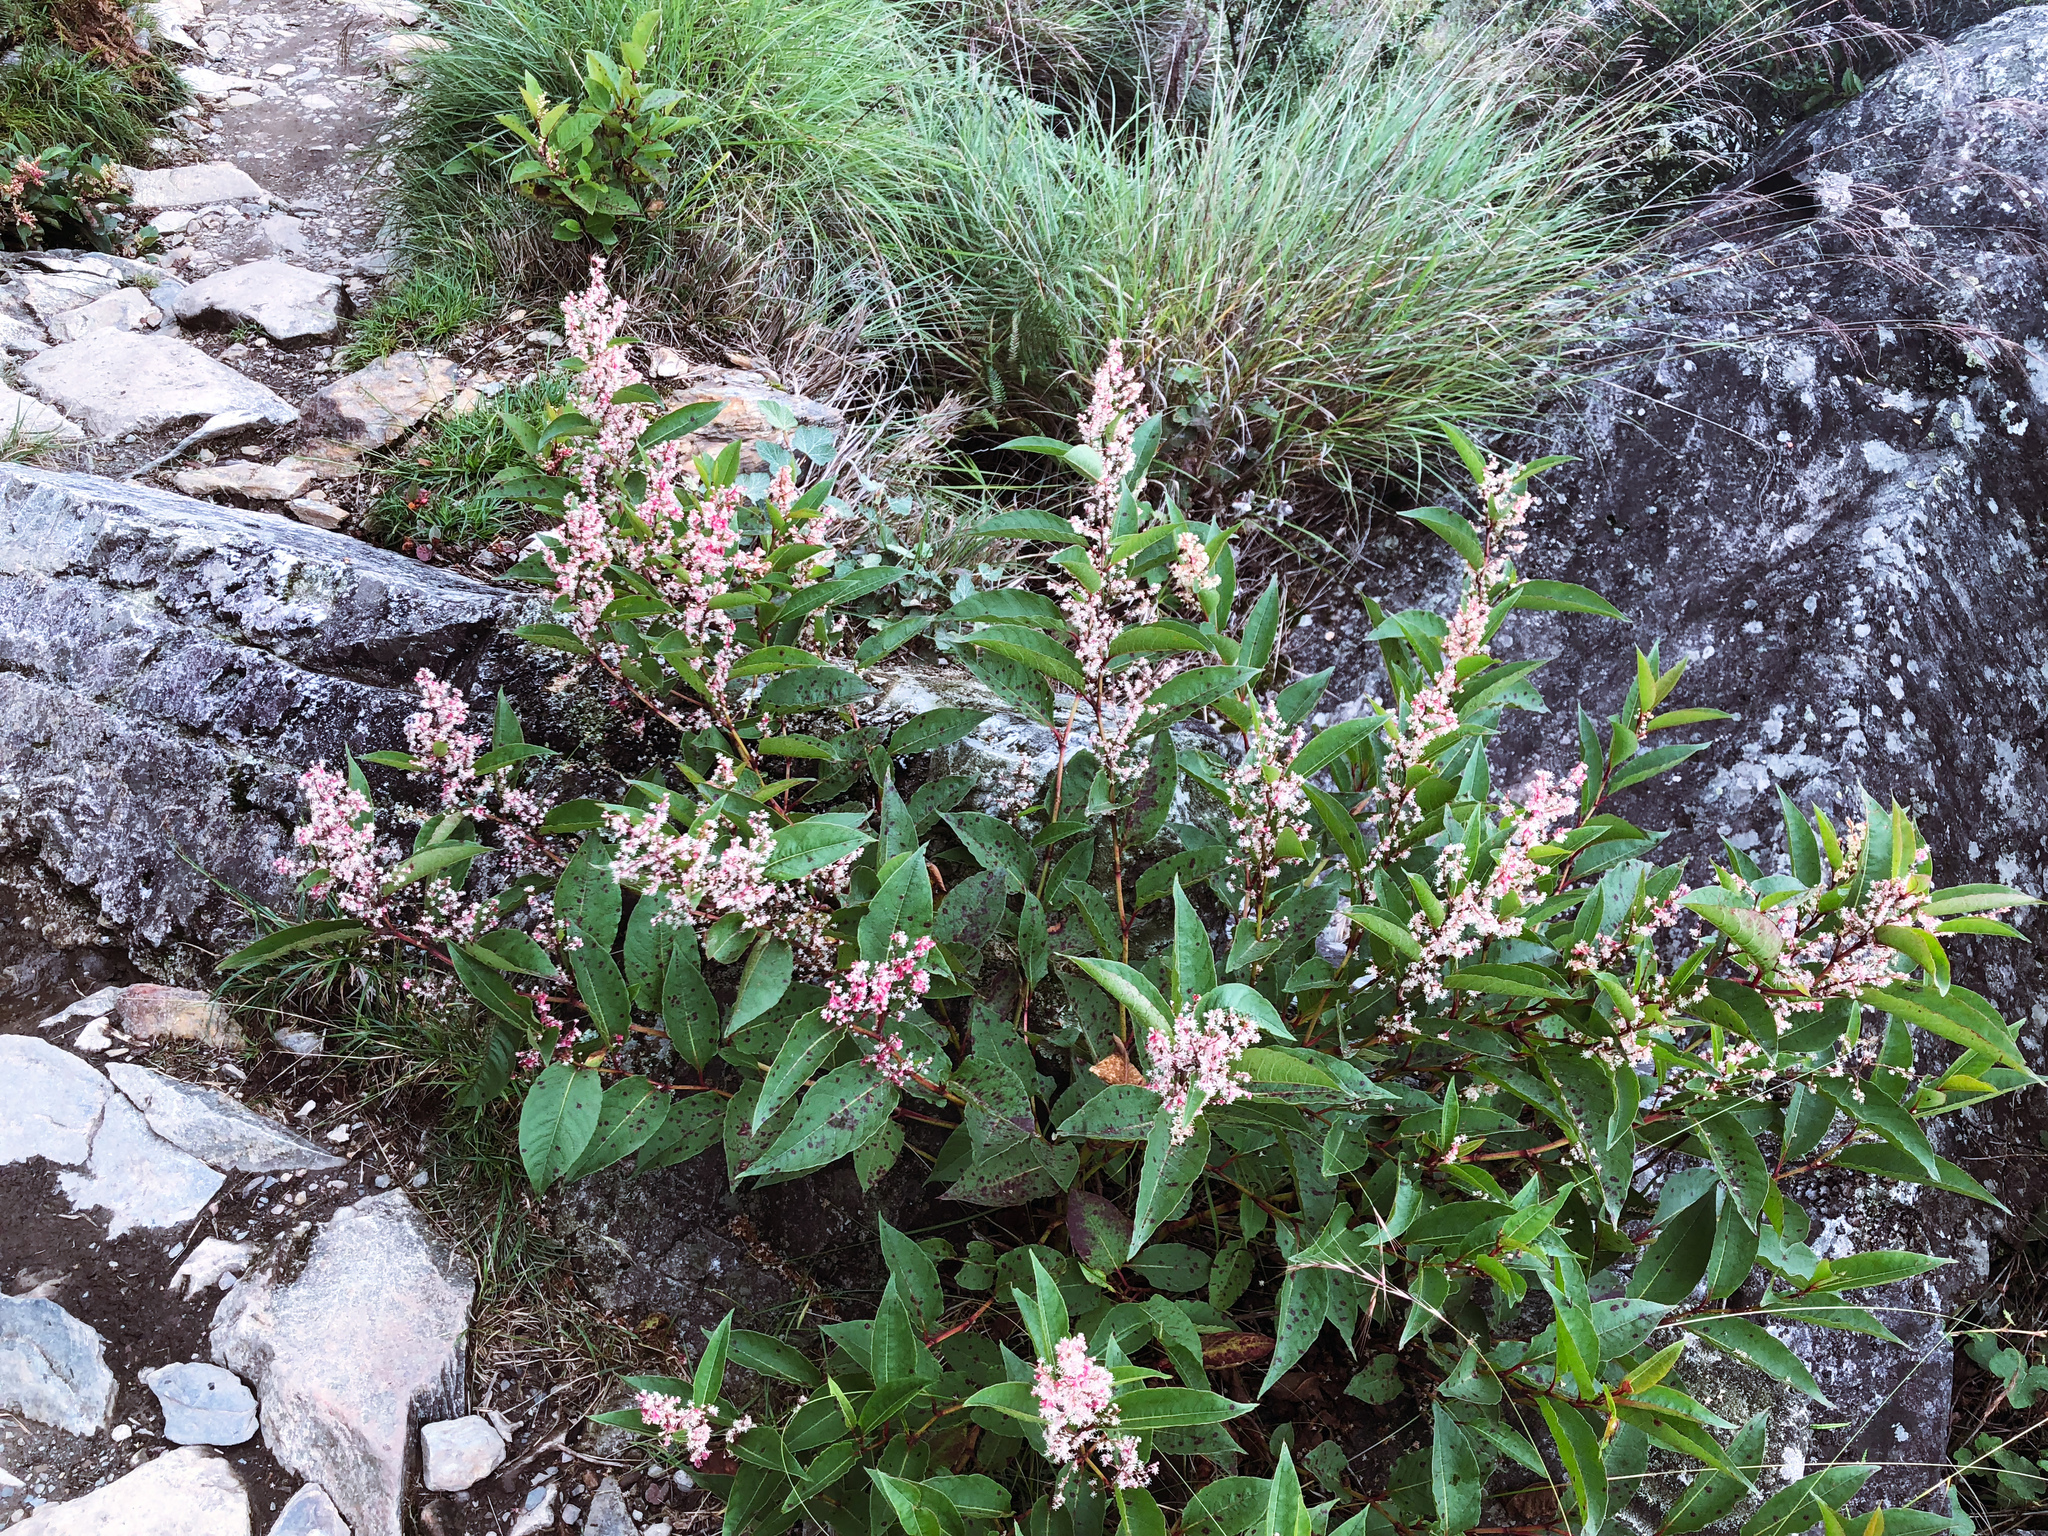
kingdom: Plantae
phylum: Tracheophyta
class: Magnoliopsida
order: Caryophyllales
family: Polygonaceae
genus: Reynoutria
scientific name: Reynoutria japonica
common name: Japanese knotweed
